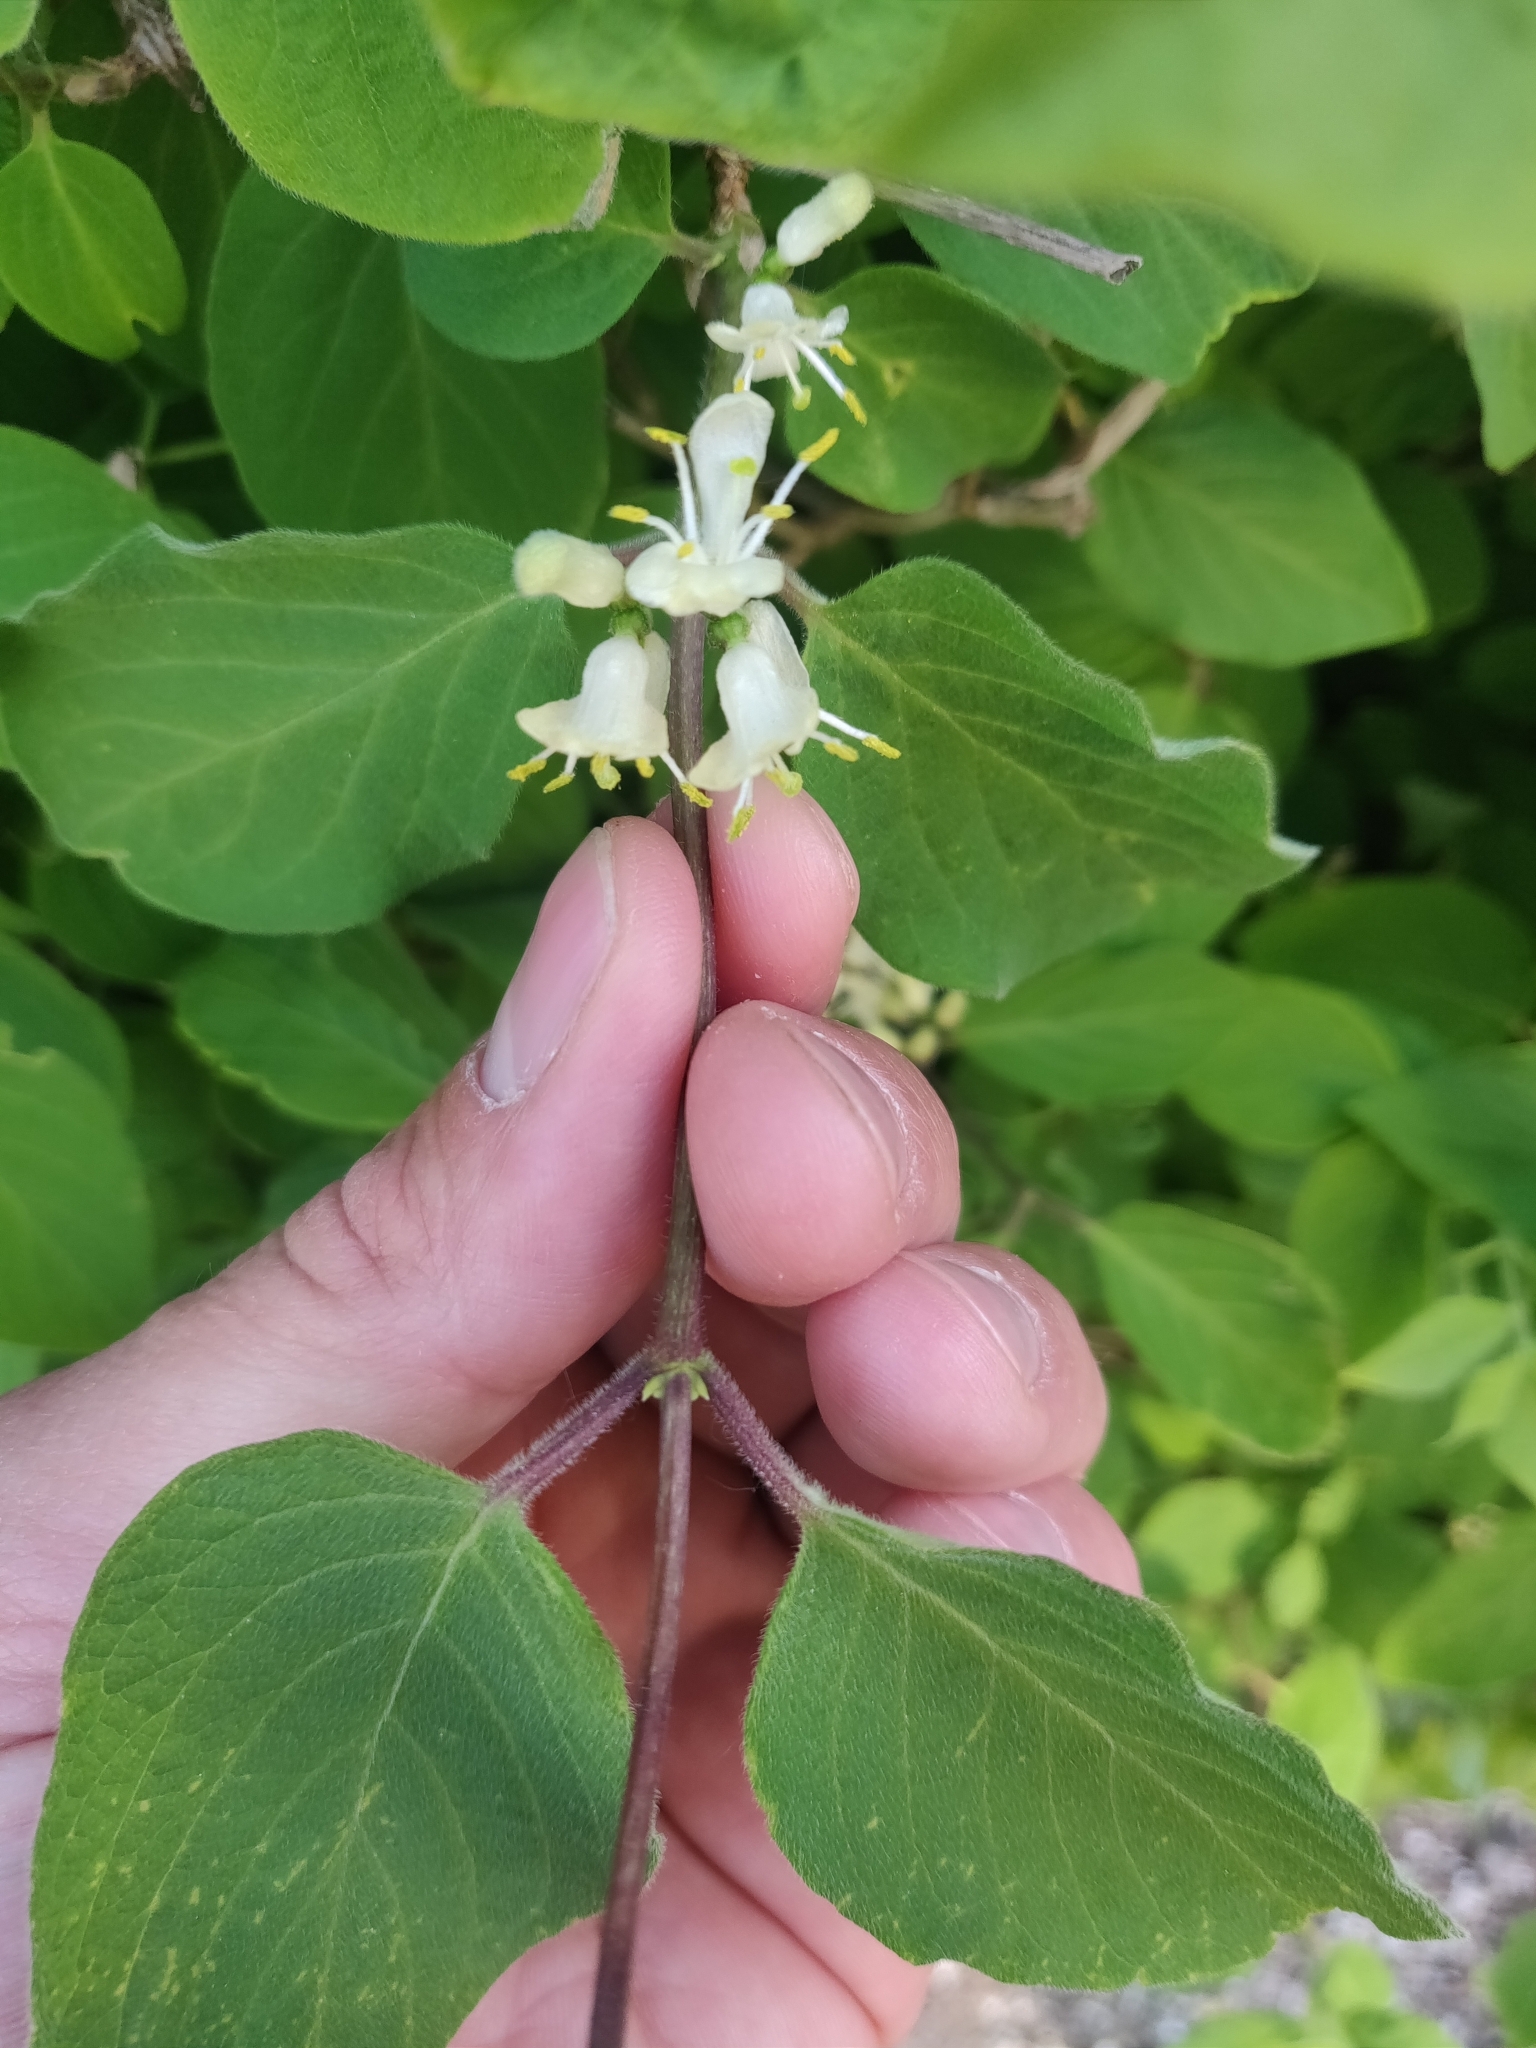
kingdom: Plantae
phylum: Tracheophyta
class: Magnoliopsida
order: Dipsacales
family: Caprifoliaceae
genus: Lonicera
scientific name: Lonicera xylosteum
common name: Fly honeysuckle
